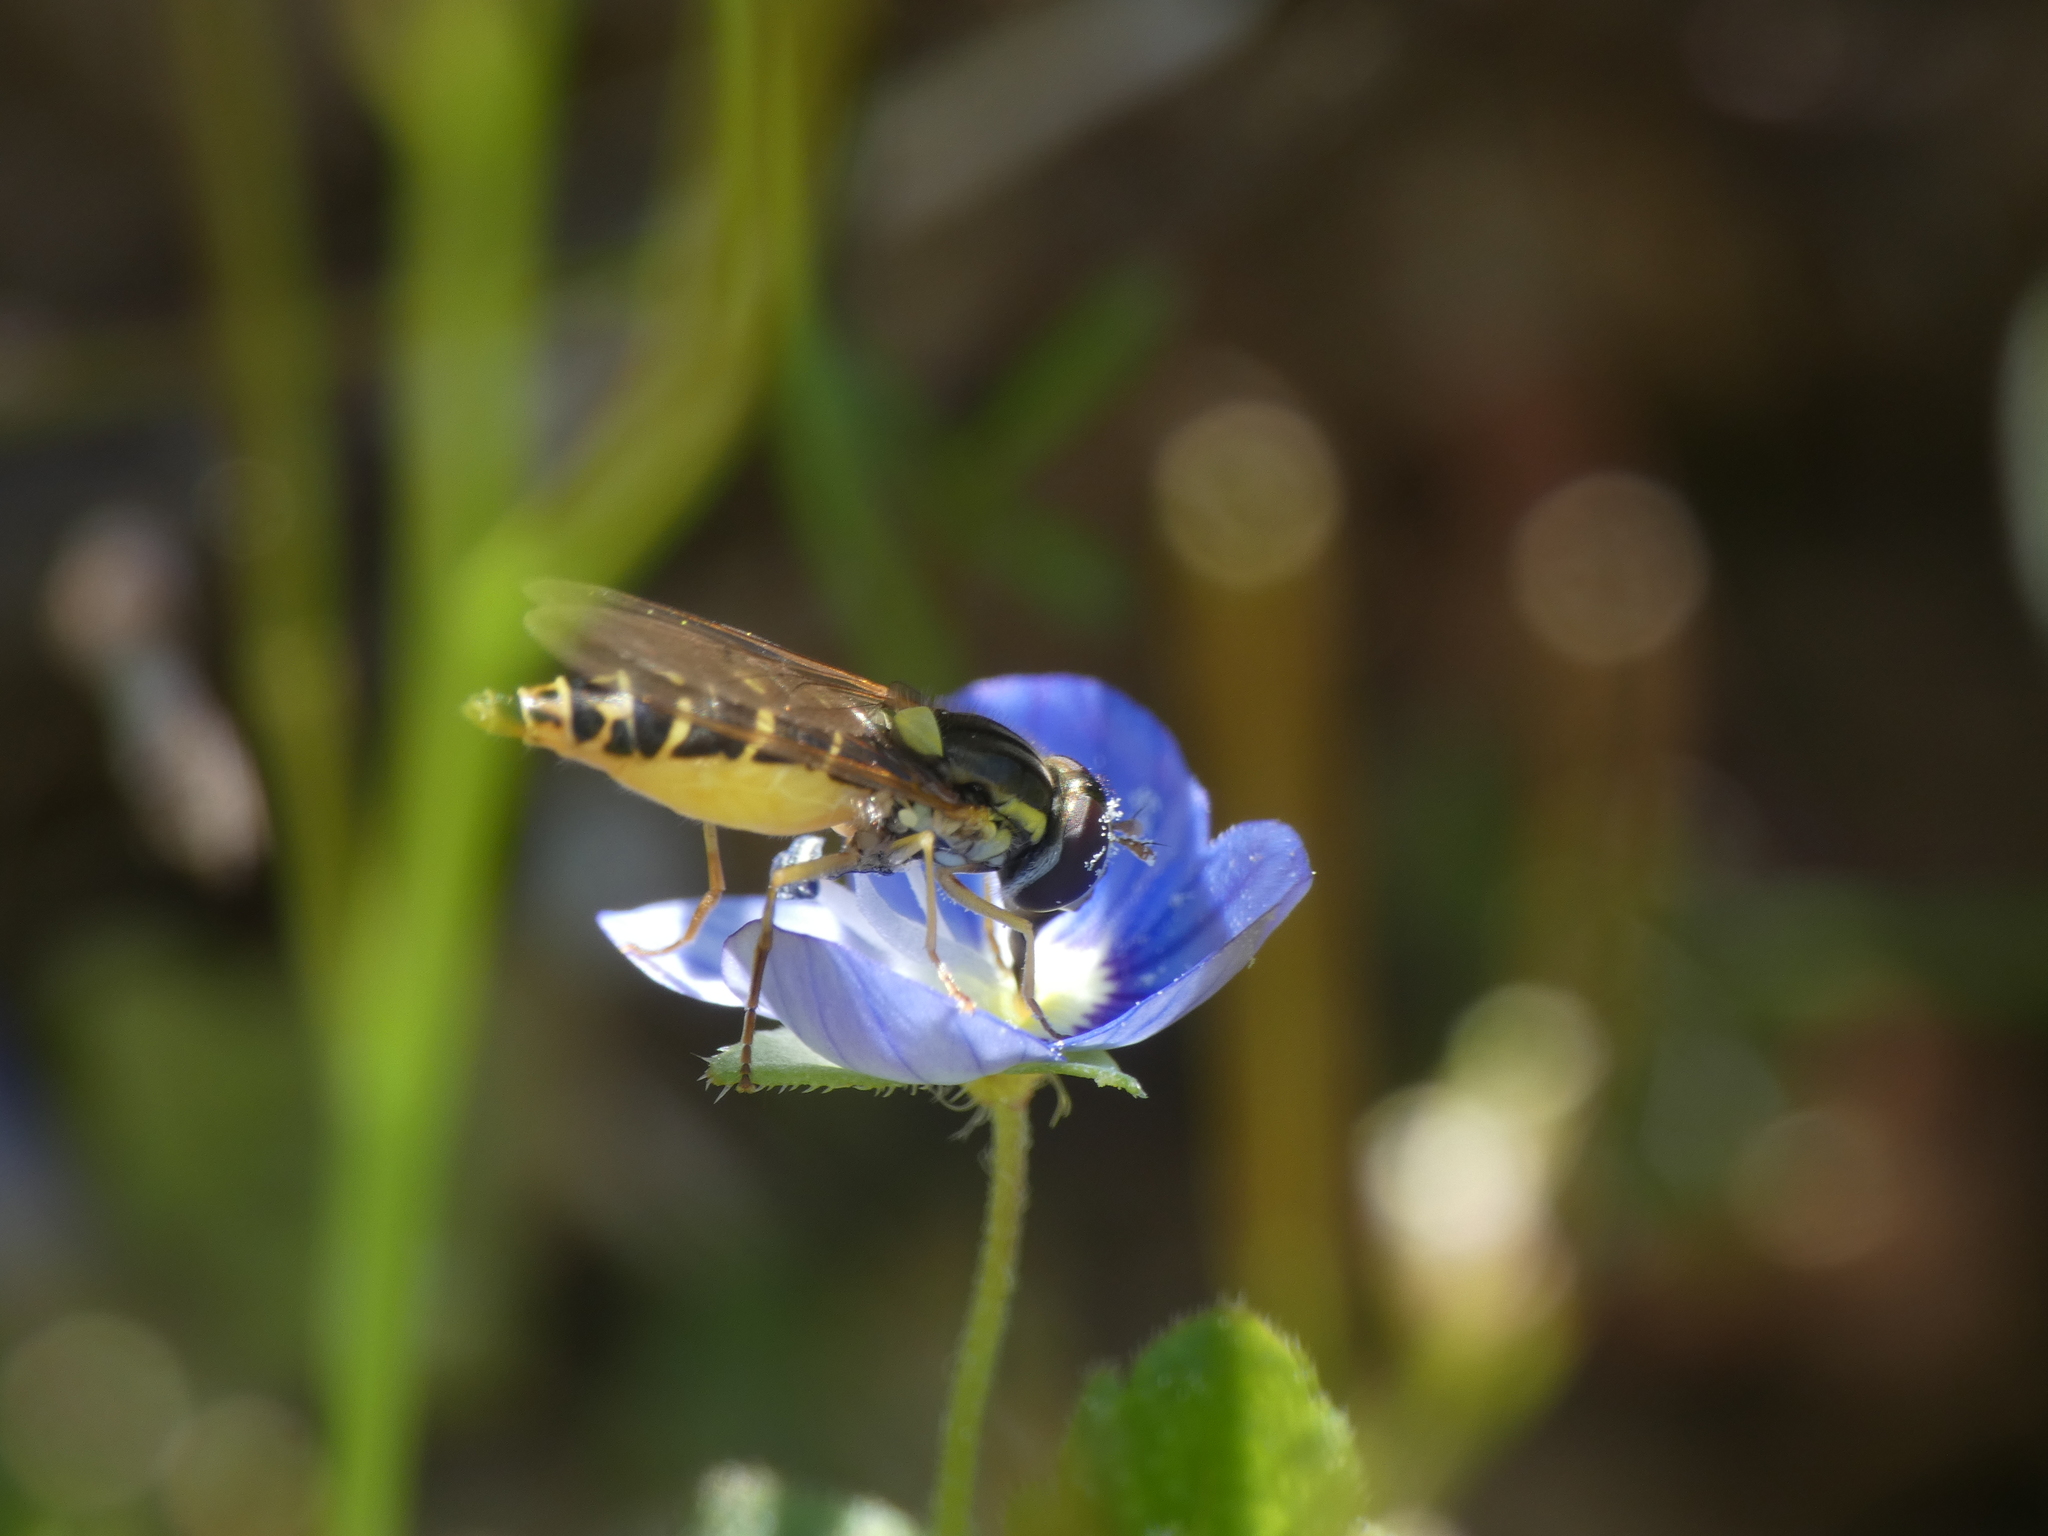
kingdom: Animalia
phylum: Arthropoda
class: Insecta
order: Diptera
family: Syrphidae
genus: Sphaerophoria
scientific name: Sphaerophoria
